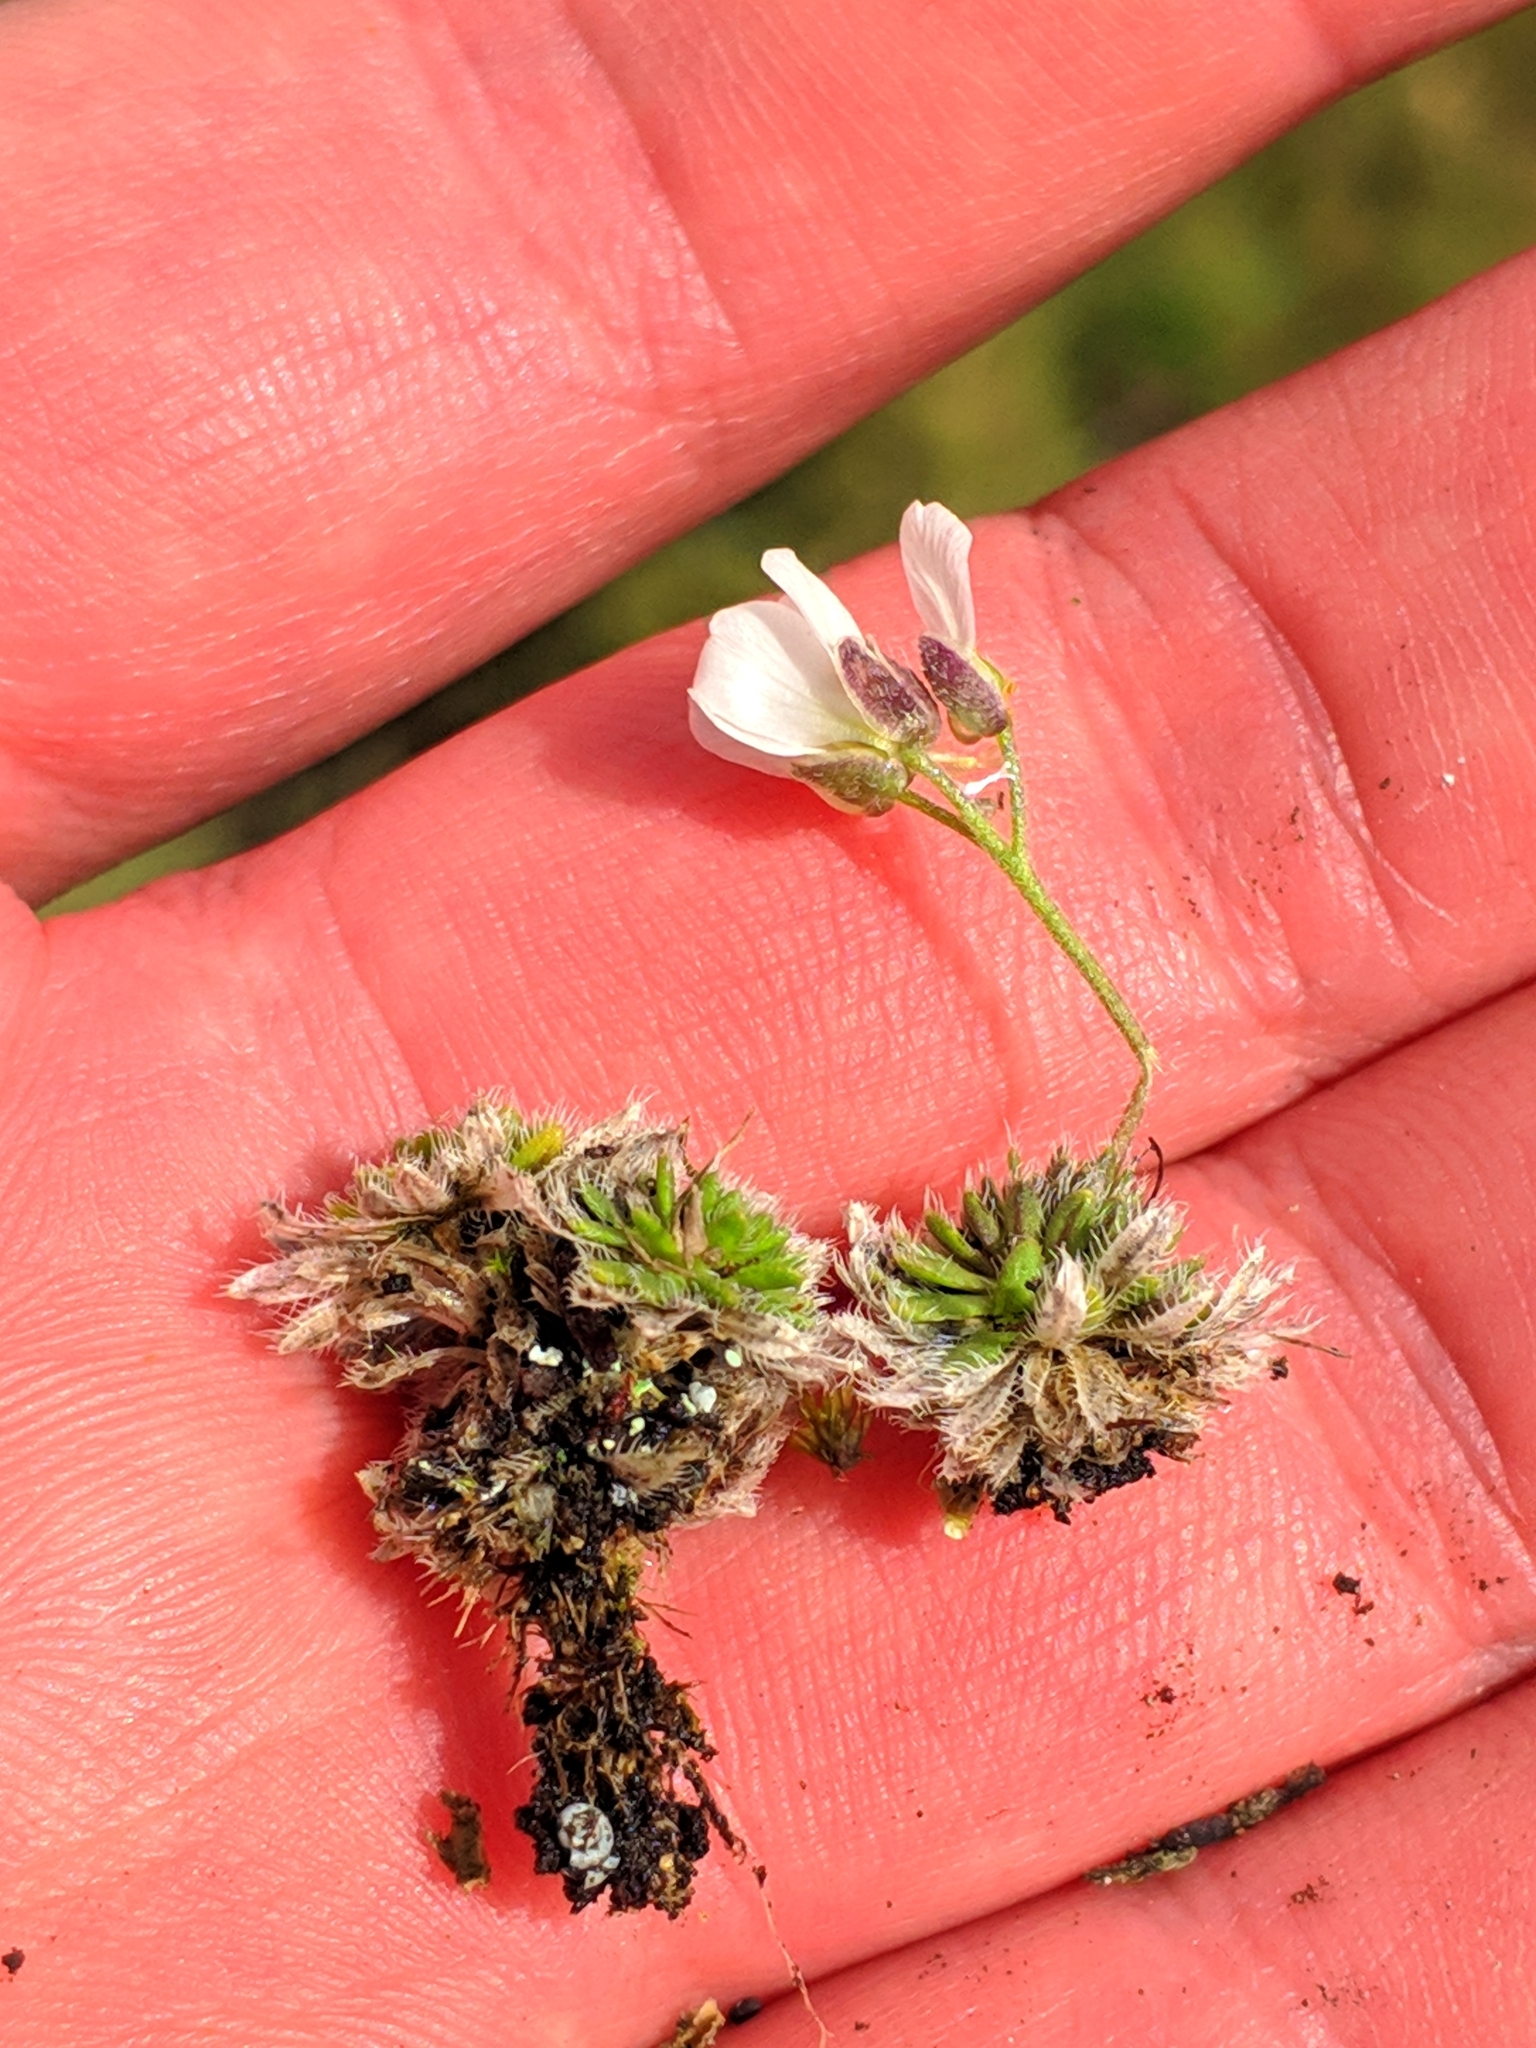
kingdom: Plantae
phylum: Tracheophyta
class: Magnoliopsida
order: Brassicales
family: Brassicaceae
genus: Draba
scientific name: Draba dedeana
